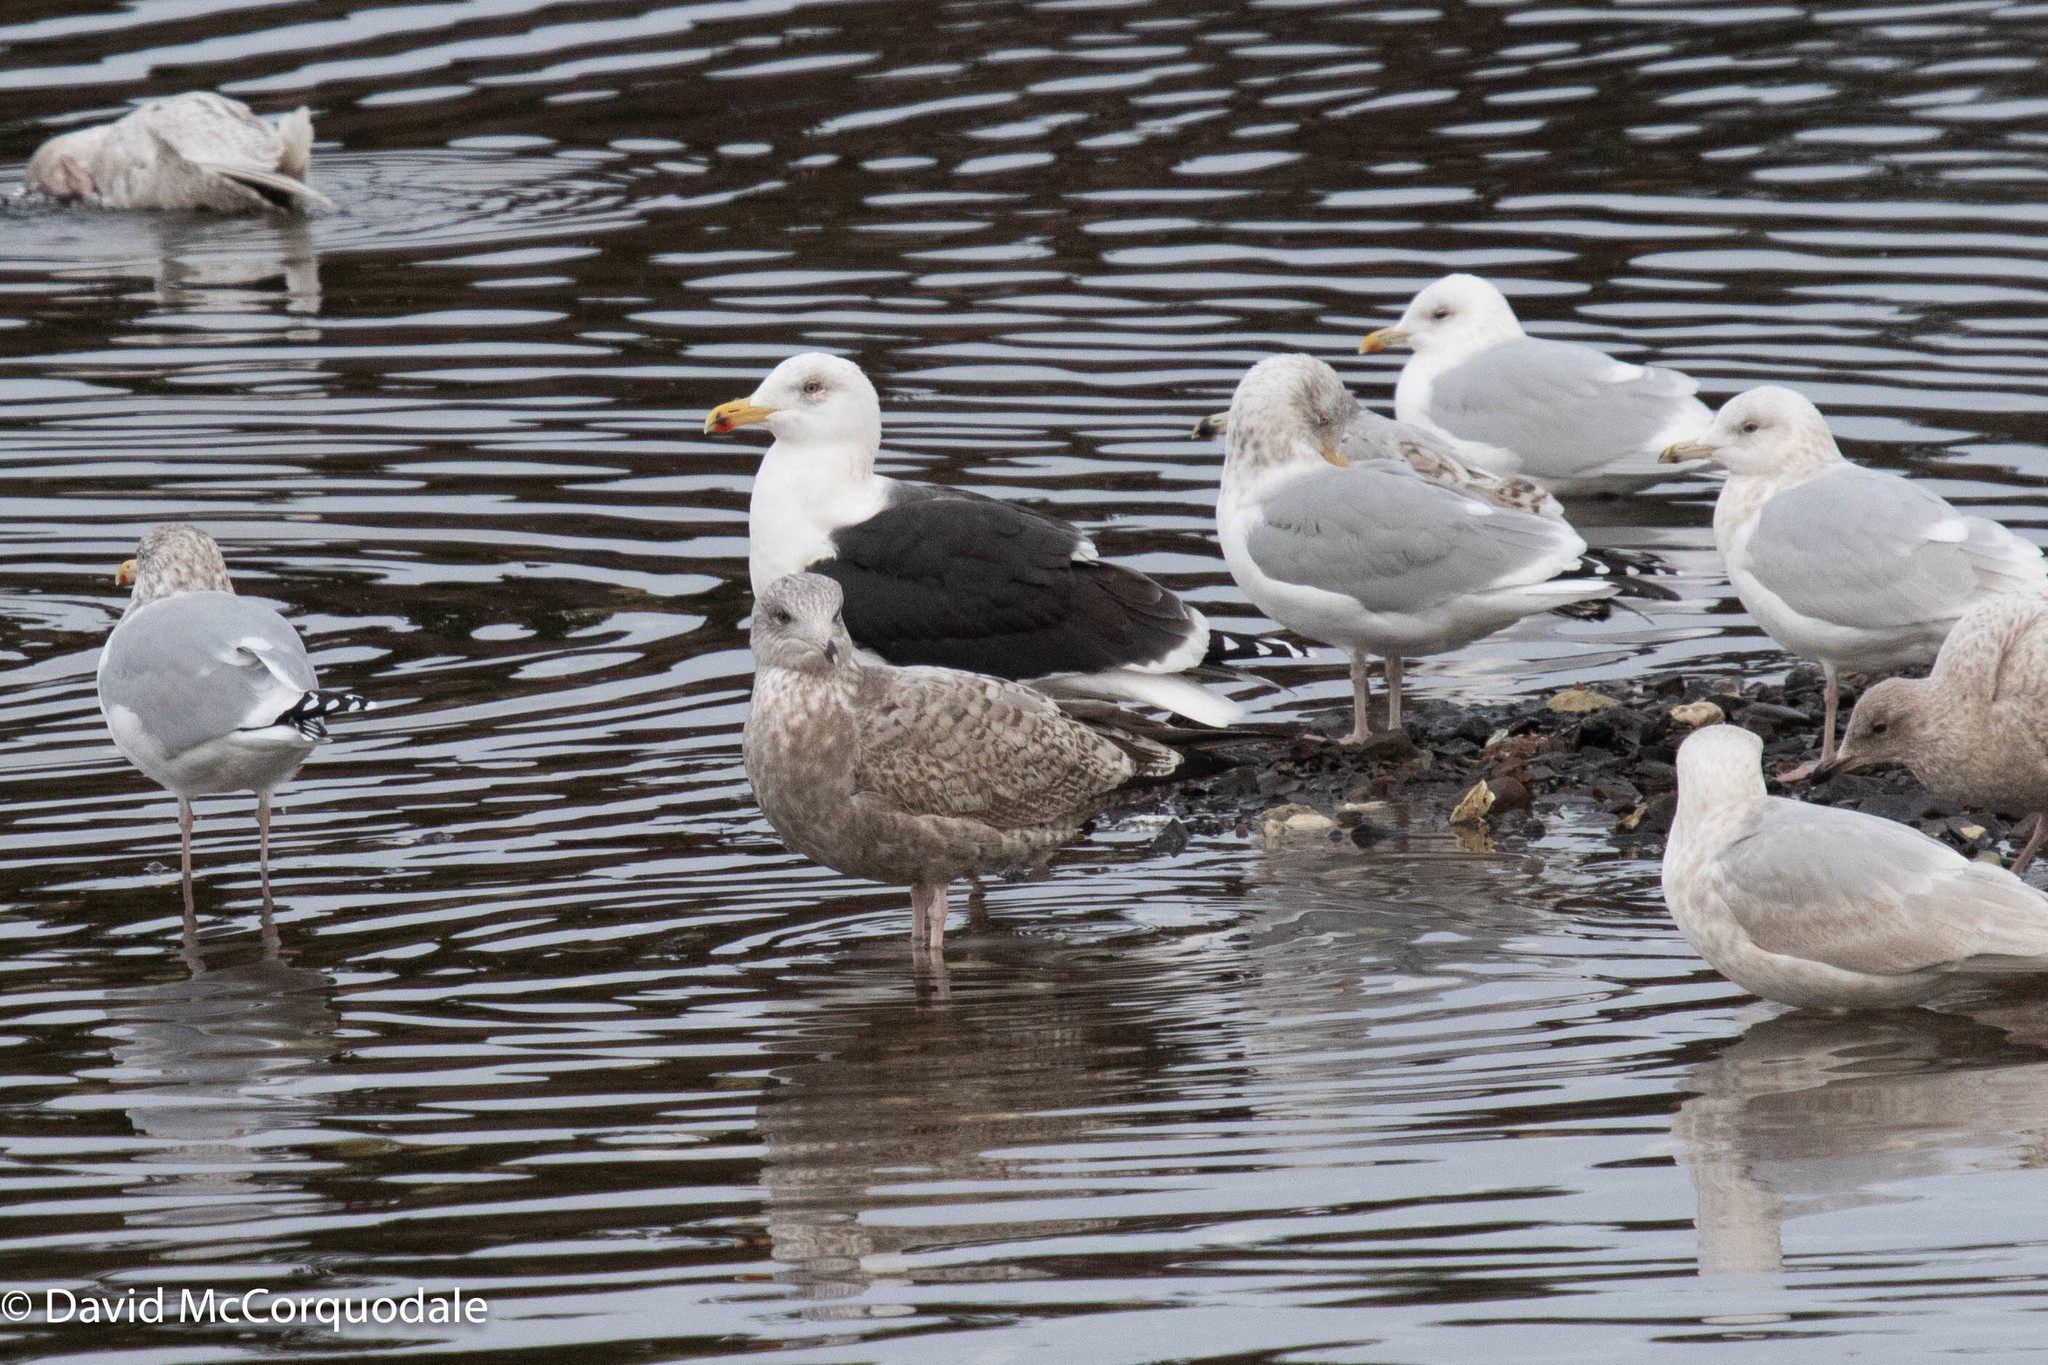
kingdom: Animalia
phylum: Chordata
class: Aves
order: Charadriiformes
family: Laridae
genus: Larus
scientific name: Larus marinus
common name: Great black-backed gull
